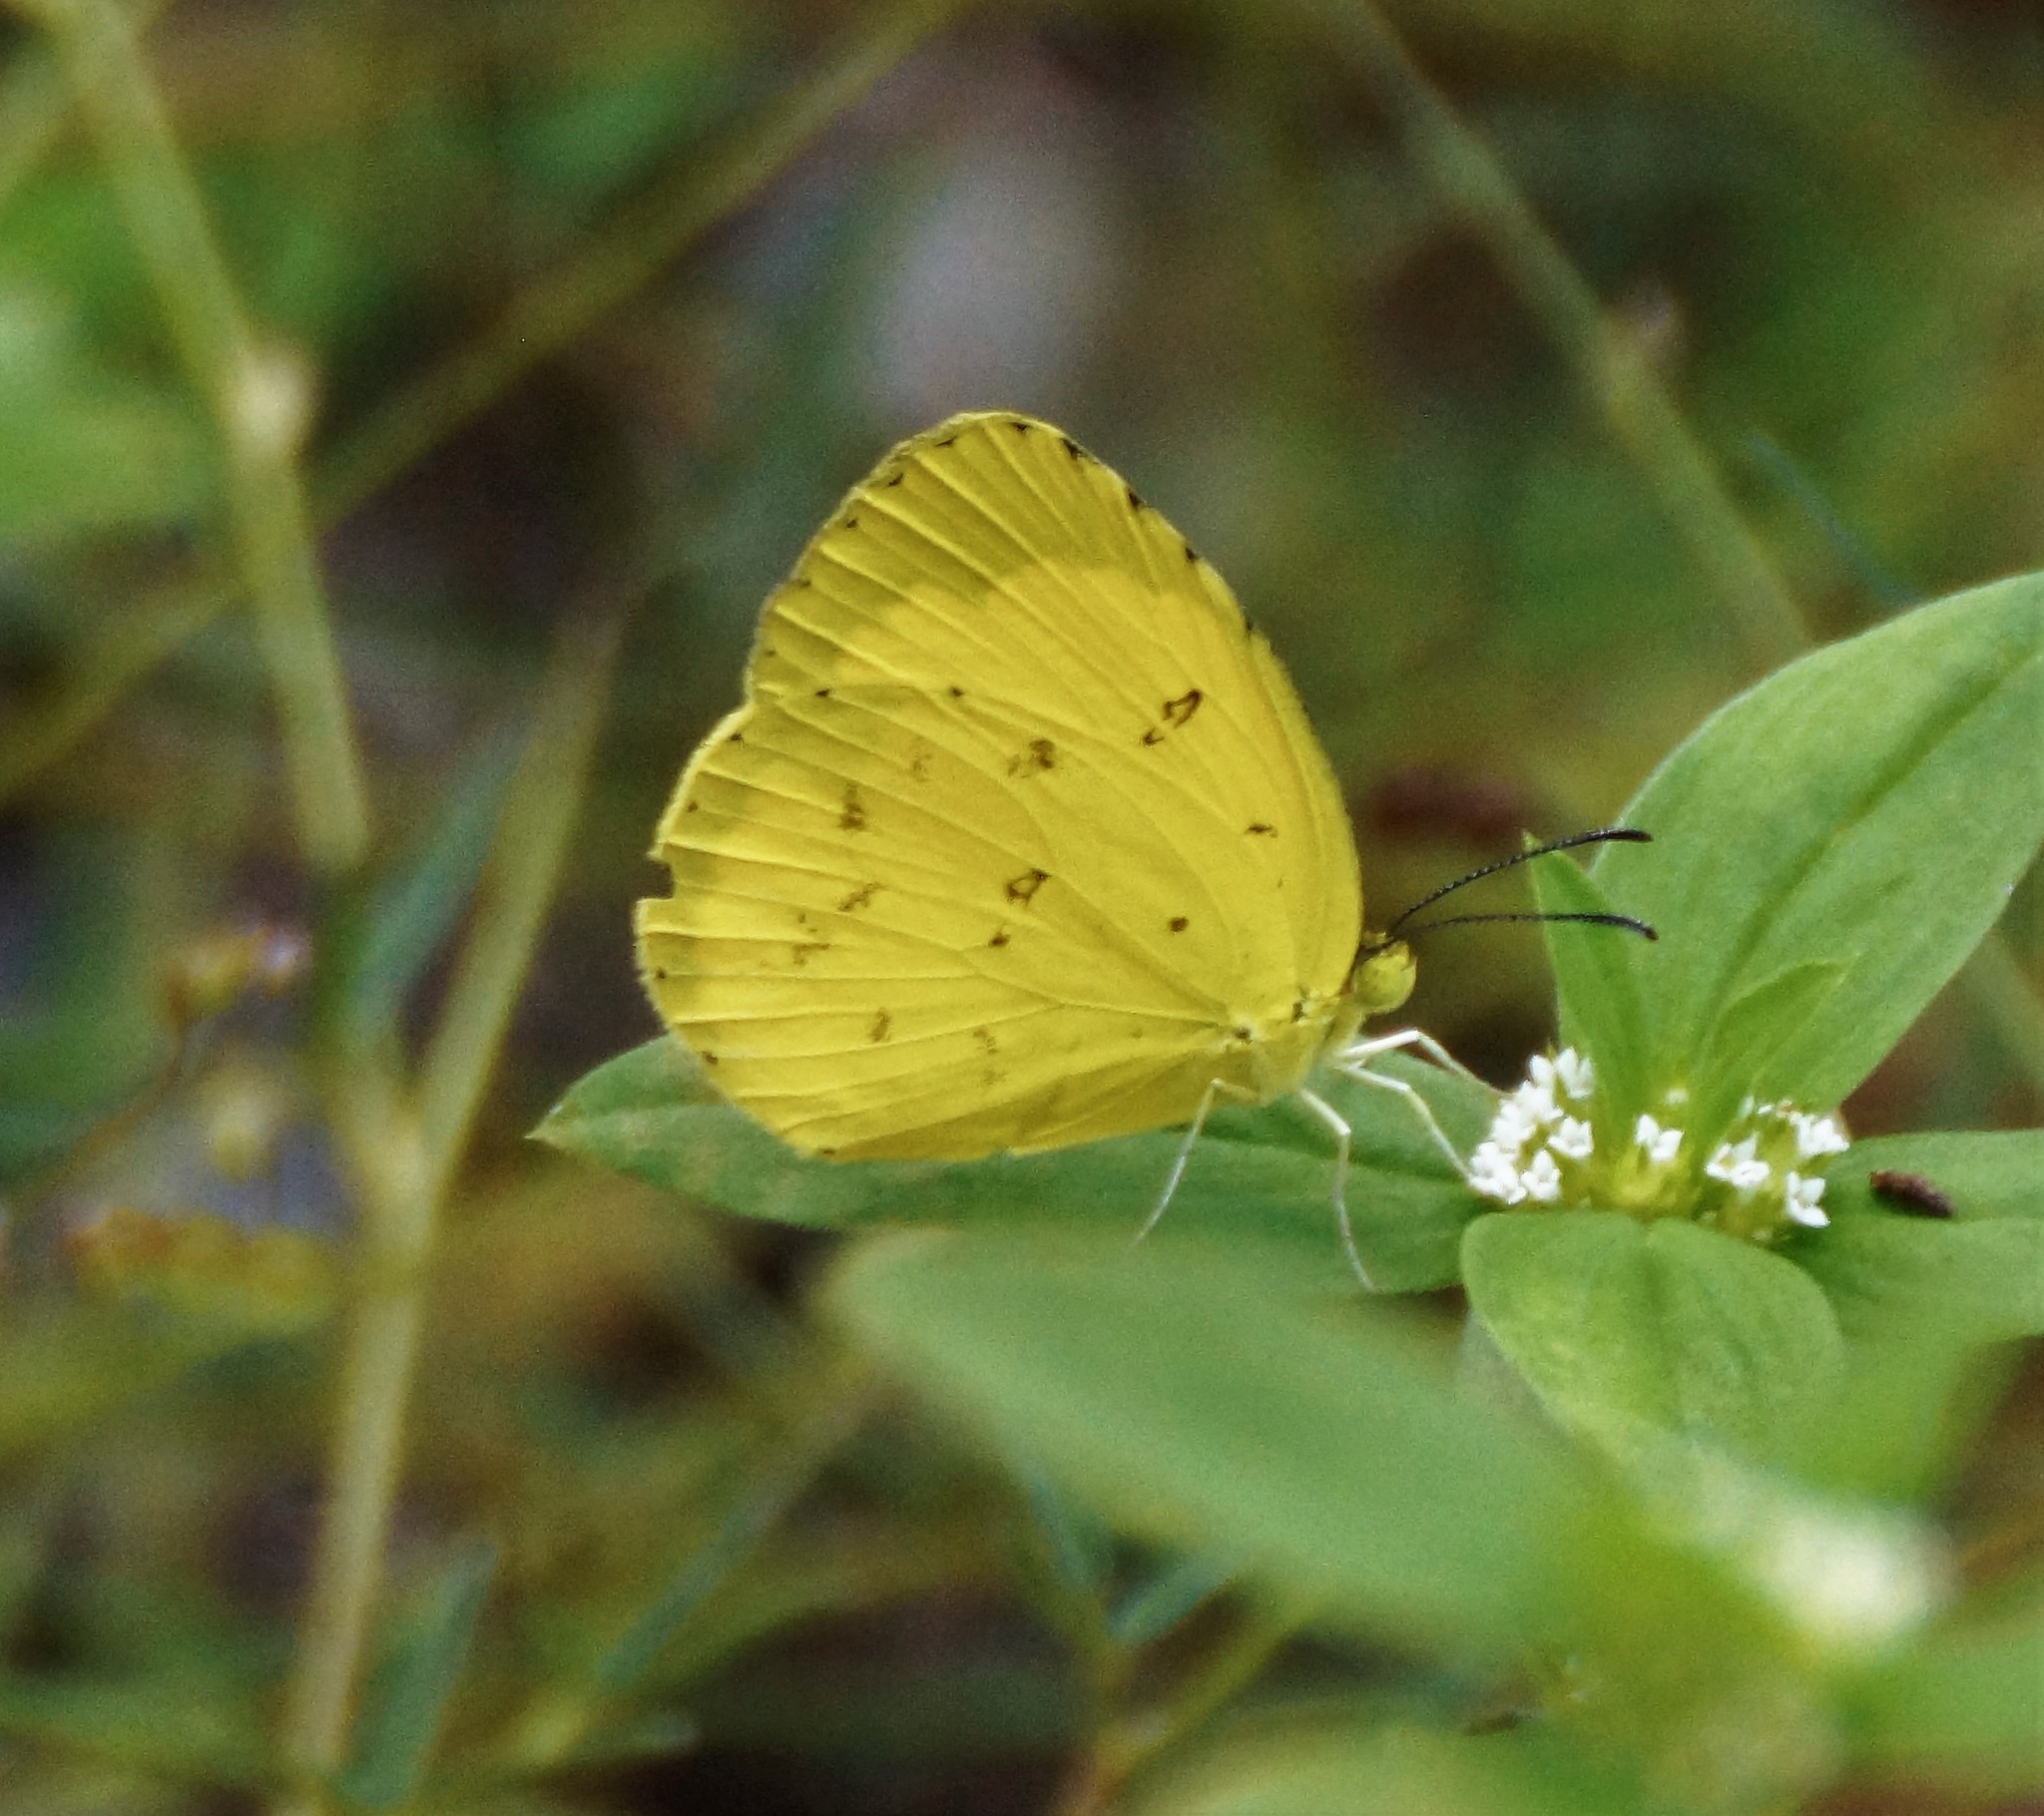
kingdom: Animalia
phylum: Arthropoda
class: Insecta
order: Lepidoptera
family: Pieridae
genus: Eurema
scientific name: Eurema hecabe
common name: Pale grass yellow
